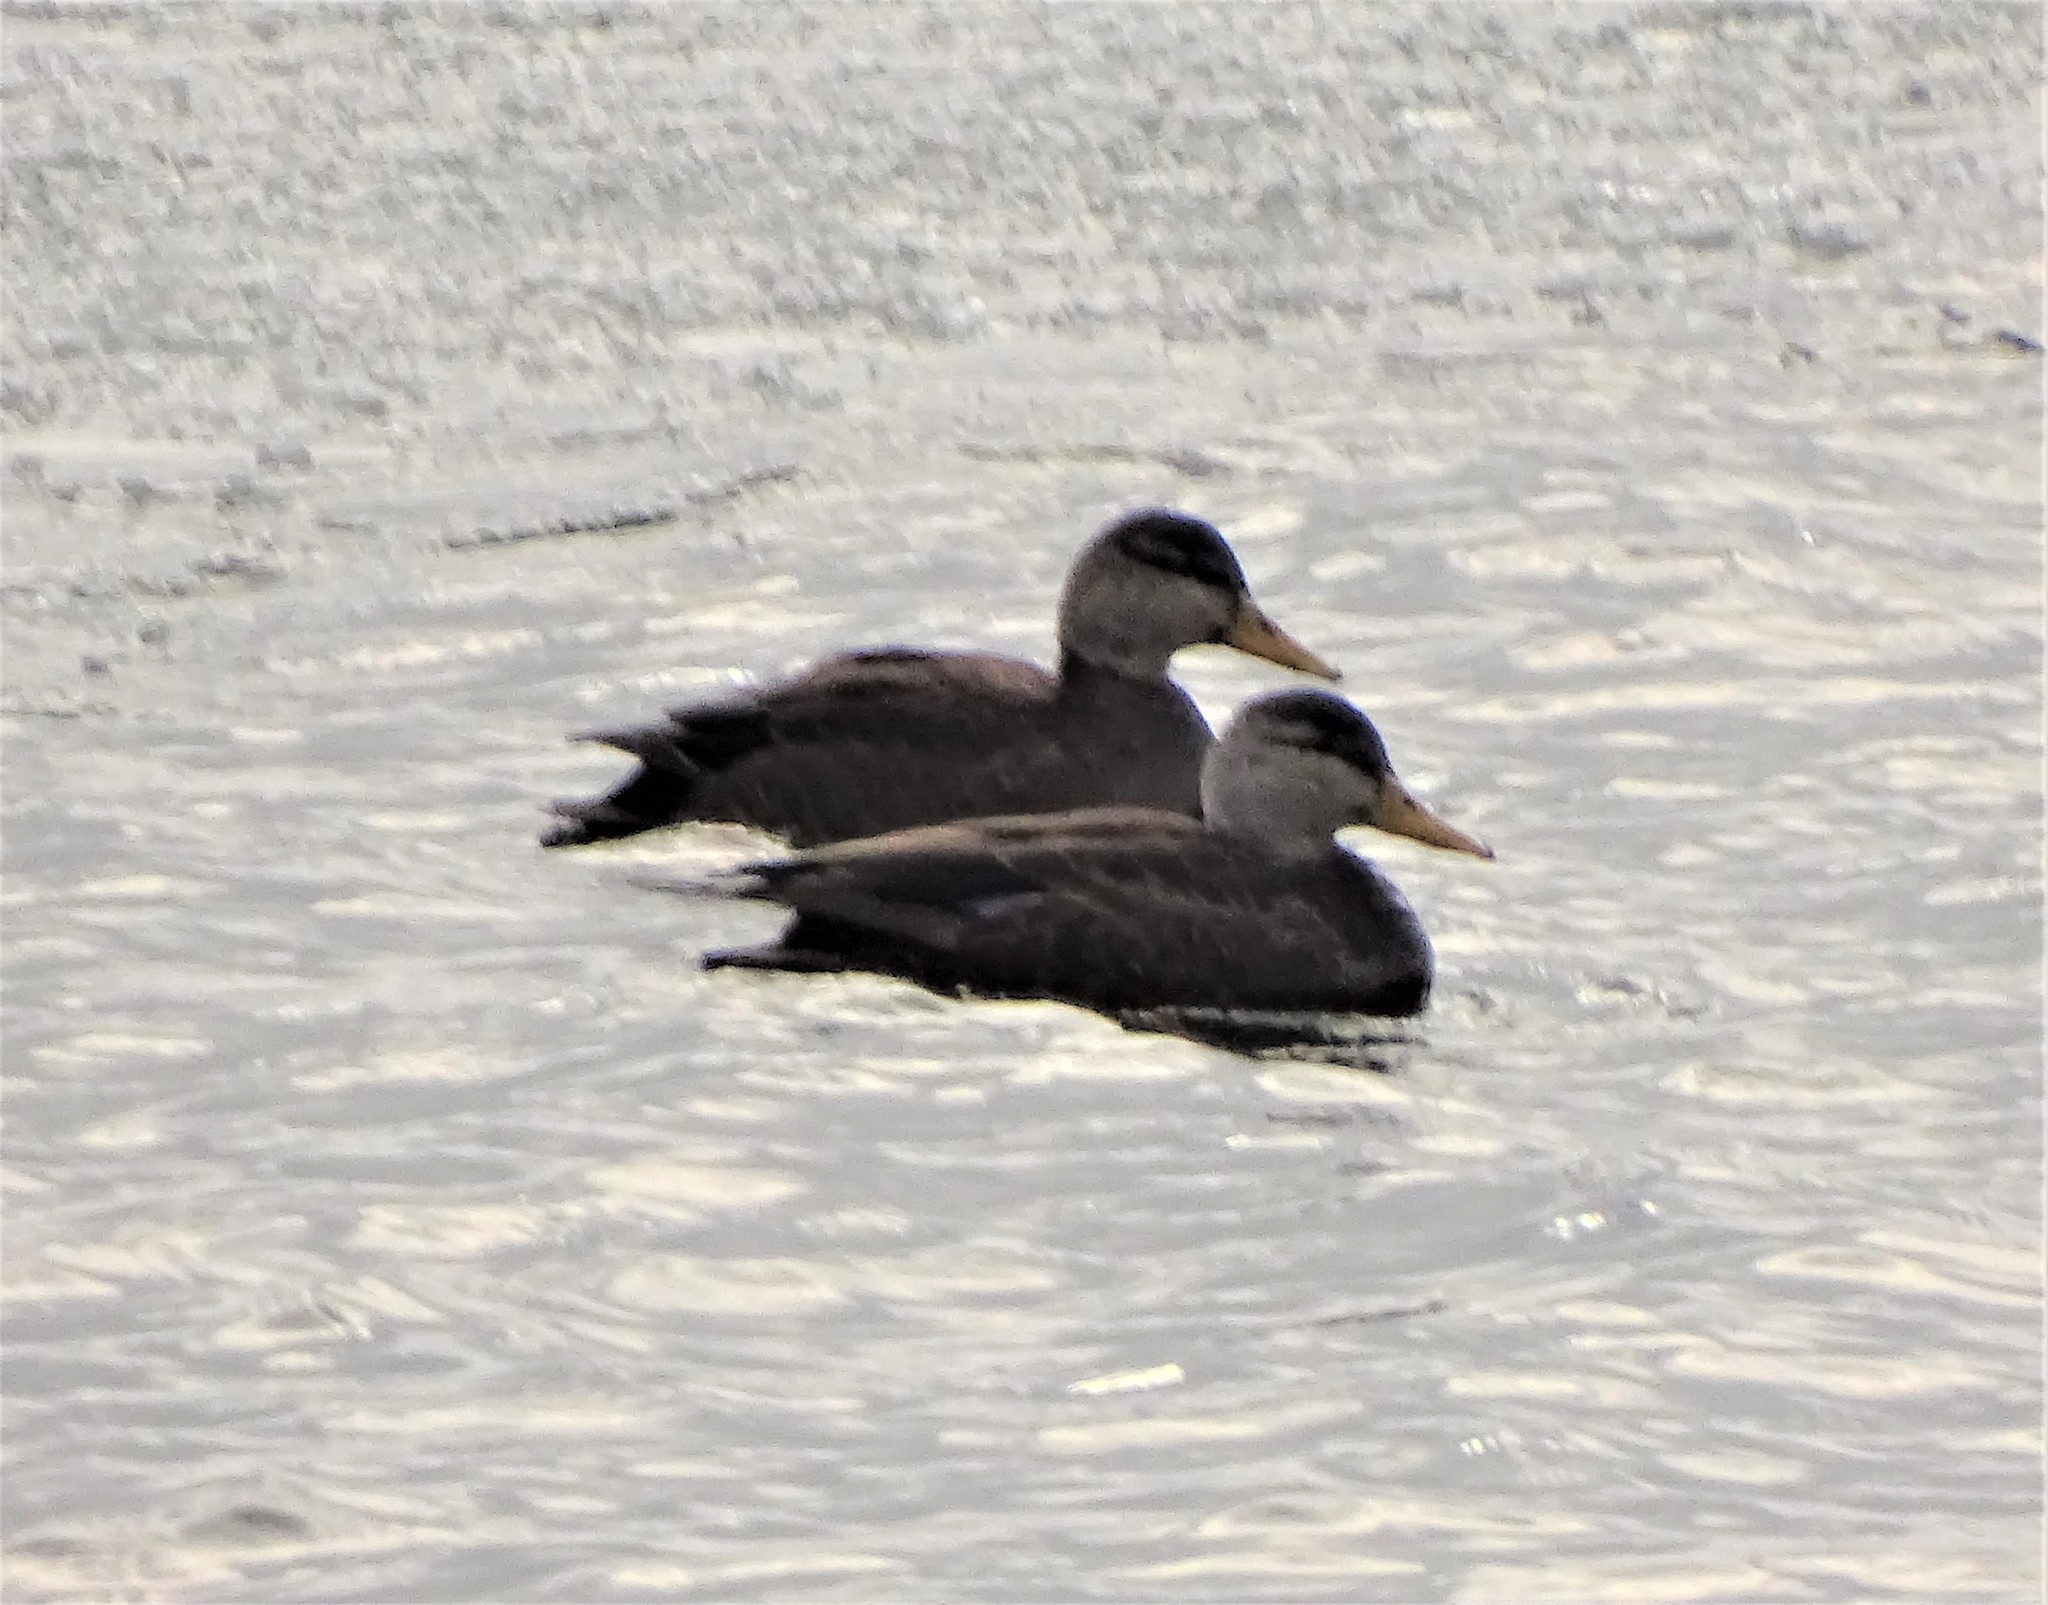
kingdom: Animalia
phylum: Chordata
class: Aves
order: Anseriformes
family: Anatidae
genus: Anas
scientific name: Anas rubripes
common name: American black duck
